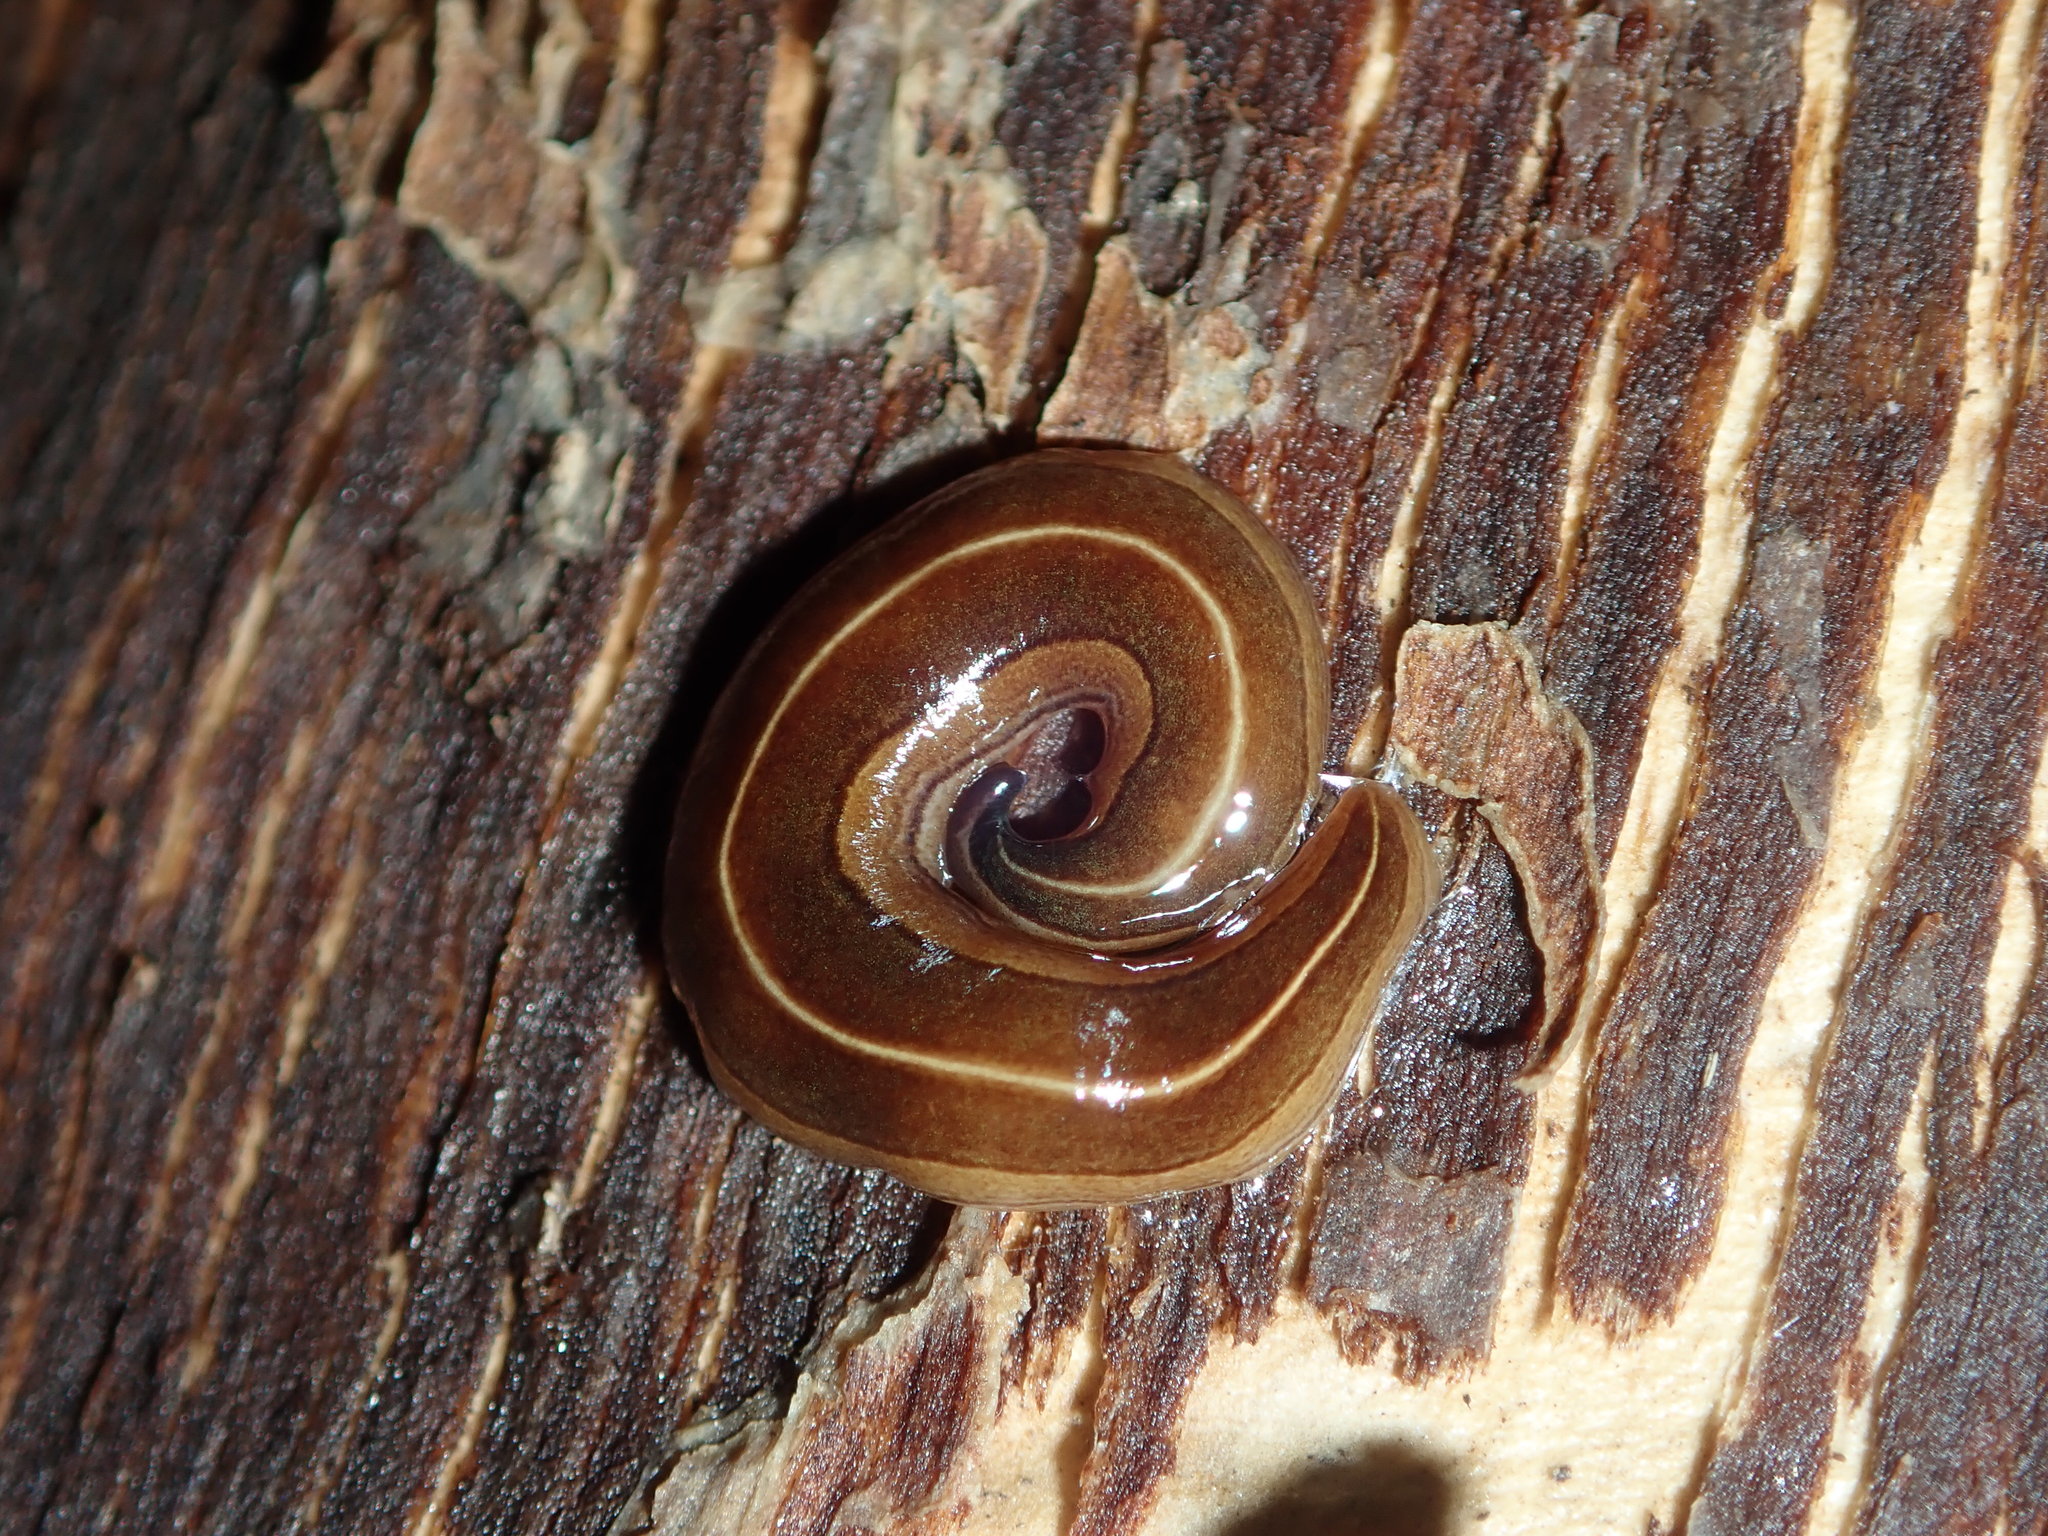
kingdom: Animalia
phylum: Platyhelminthes
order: Tricladida
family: Geoplanidae
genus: Australopacifica
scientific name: Australopacifica scaphoidea
